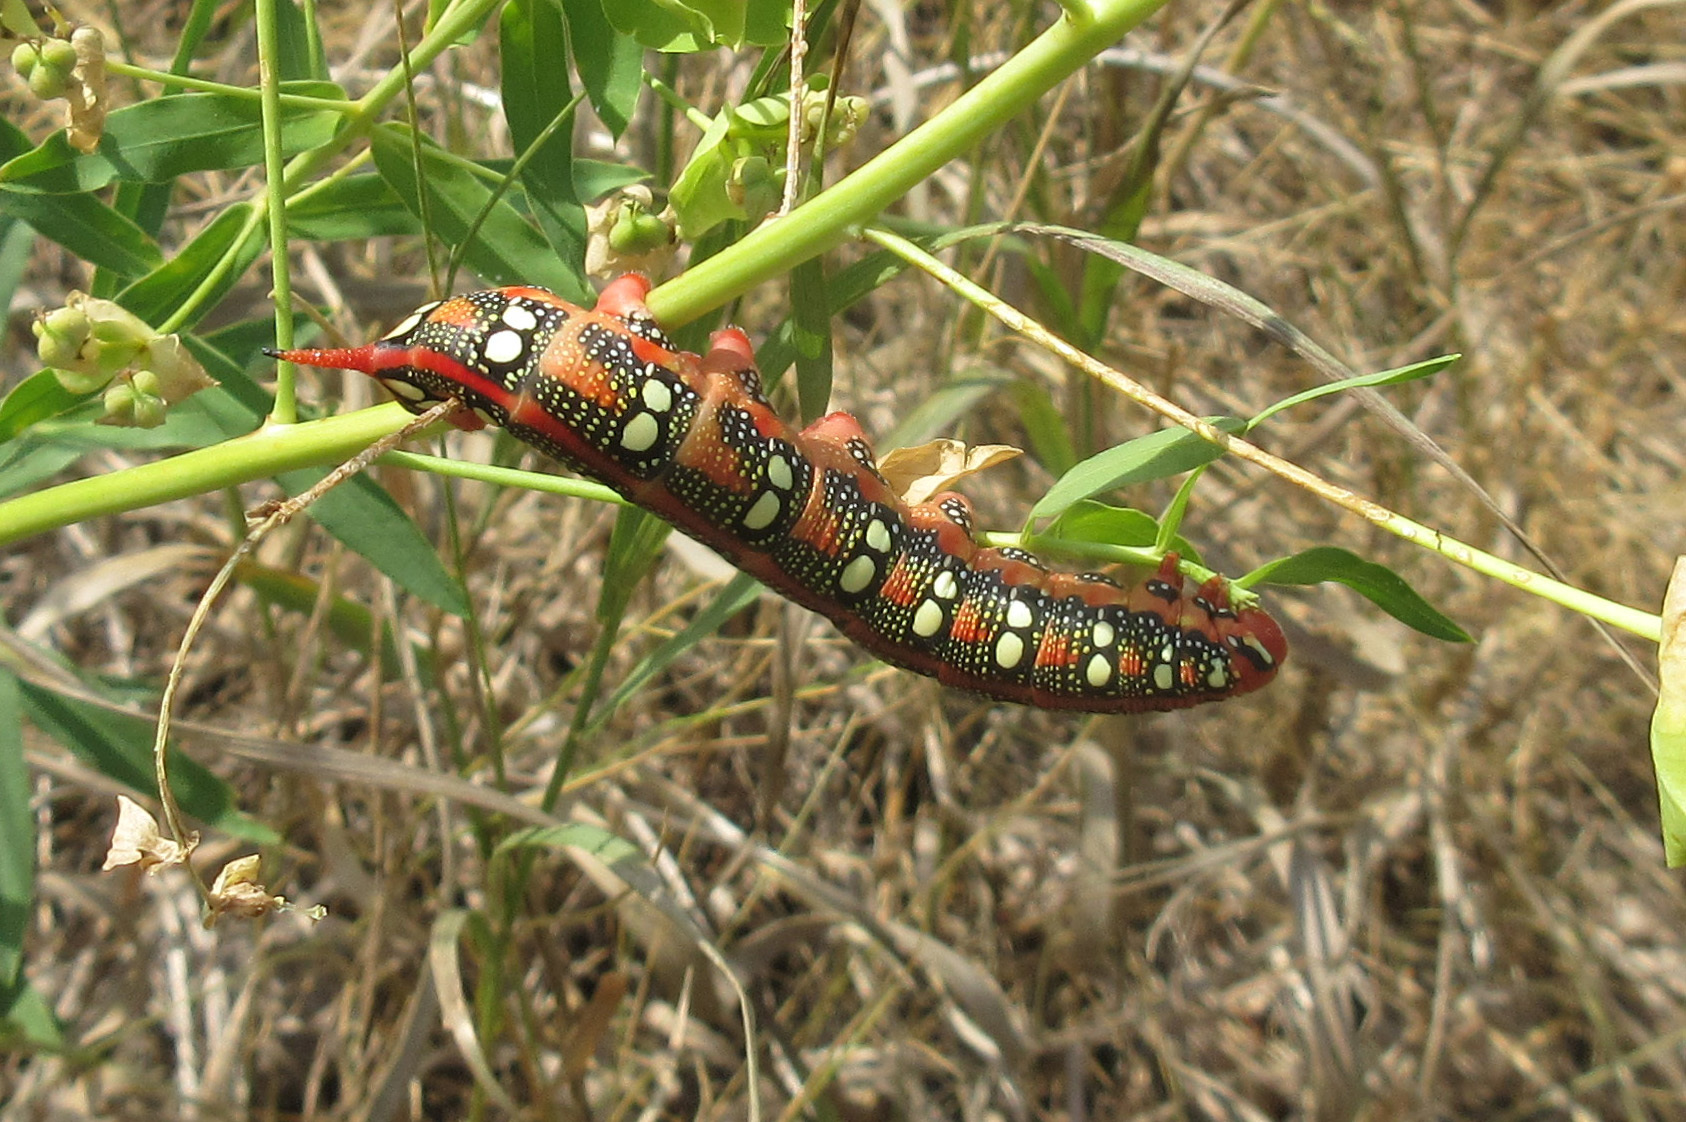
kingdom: Animalia
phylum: Arthropoda
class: Insecta
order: Lepidoptera
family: Sphingidae
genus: Hyles
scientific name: Hyles euphorbiae
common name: Spurge hawk-moth
